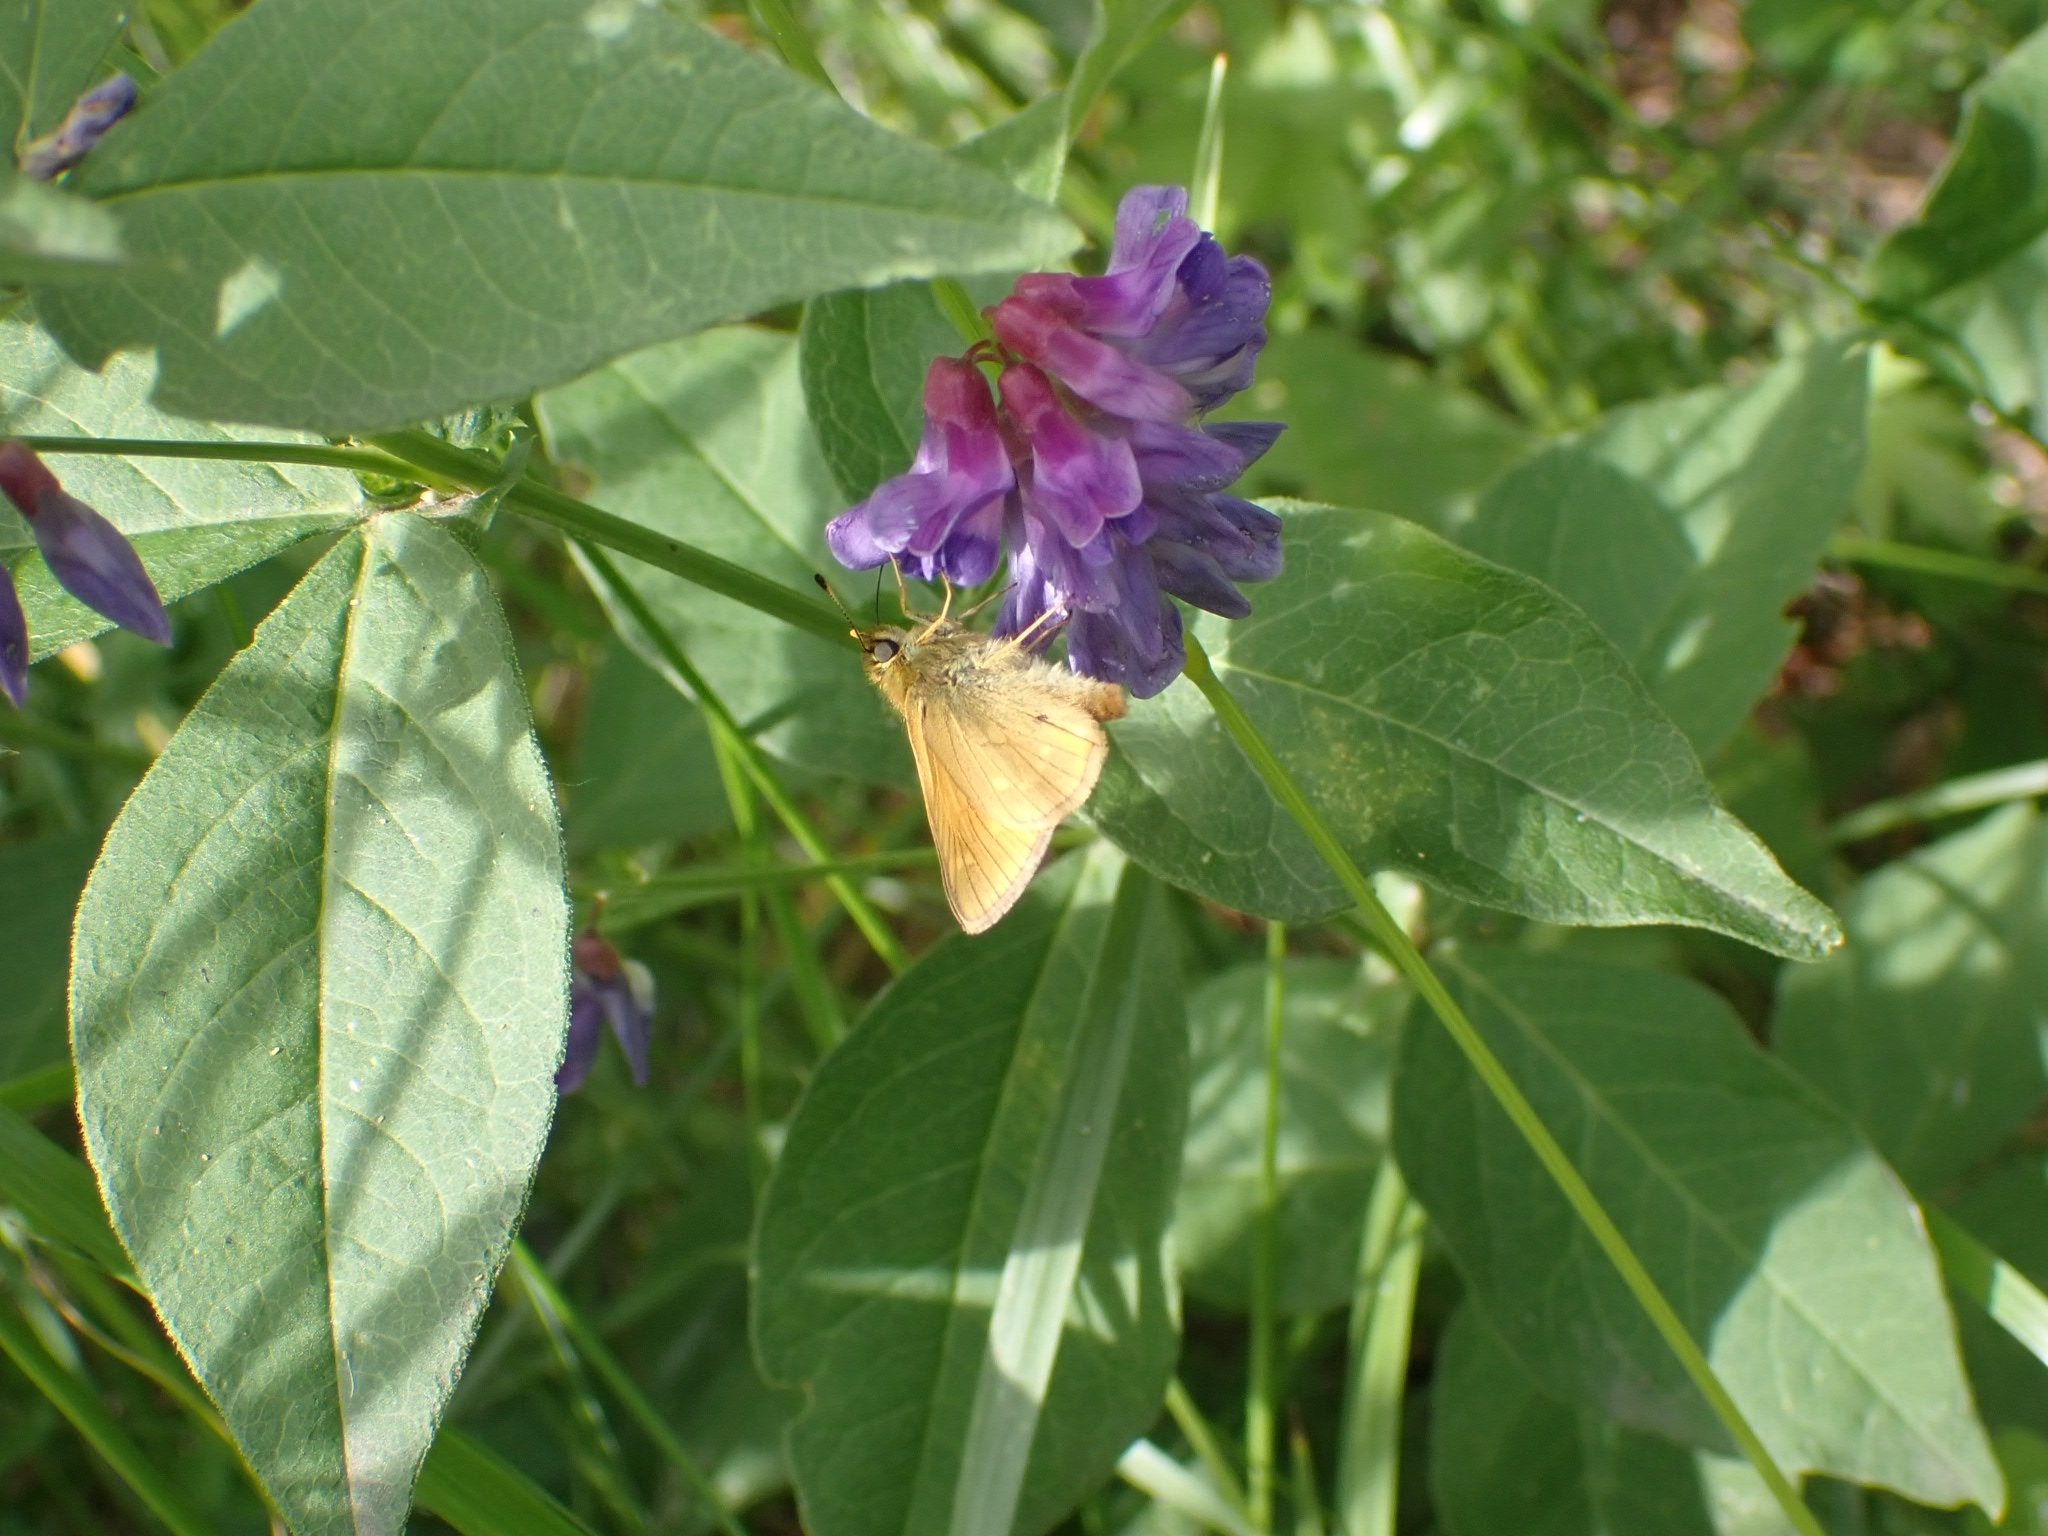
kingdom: Animalia
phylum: Arthropoda
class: Insecta
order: Lepidoptera
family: Hesperiidae
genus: Ochlodes
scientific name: Ochlodes venata
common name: Large skipper
